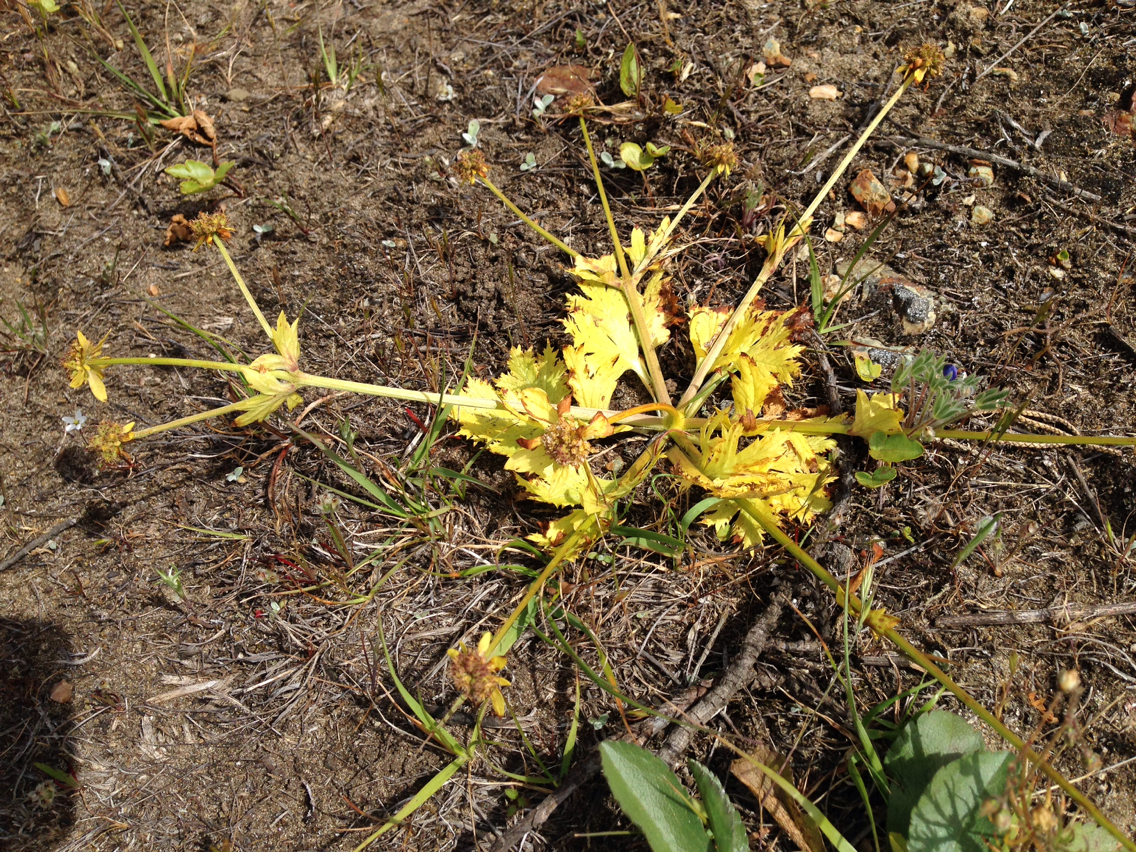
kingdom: Plantae
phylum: Tracheophyta
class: Magnoliopsida
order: Apiales
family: Apiaceae
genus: Sanicula
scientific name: Sanicula arctopoides
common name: Footsteps-of-spring
